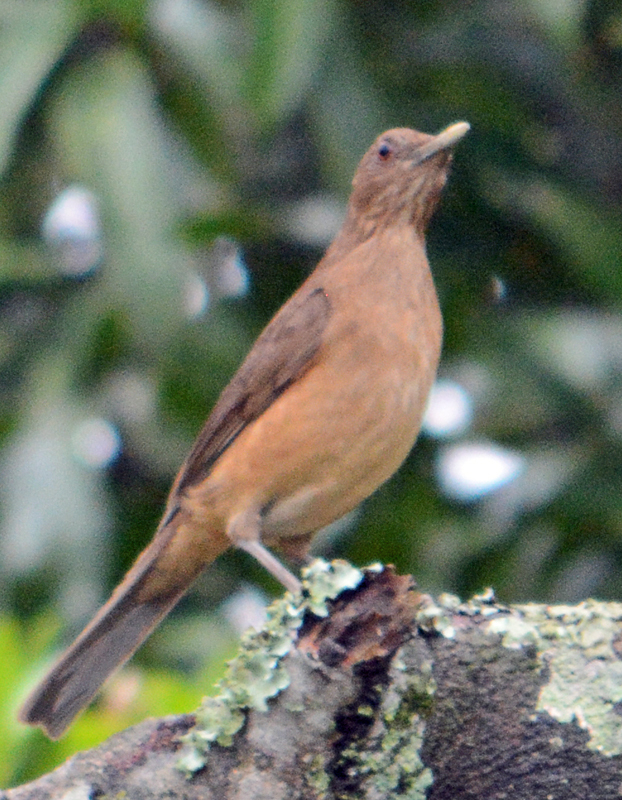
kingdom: Animalia
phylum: Chordata
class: Aves
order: Passeriformes
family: Turdidae
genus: Turdus
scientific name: Turdus grayi
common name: Clay-colored thrush
